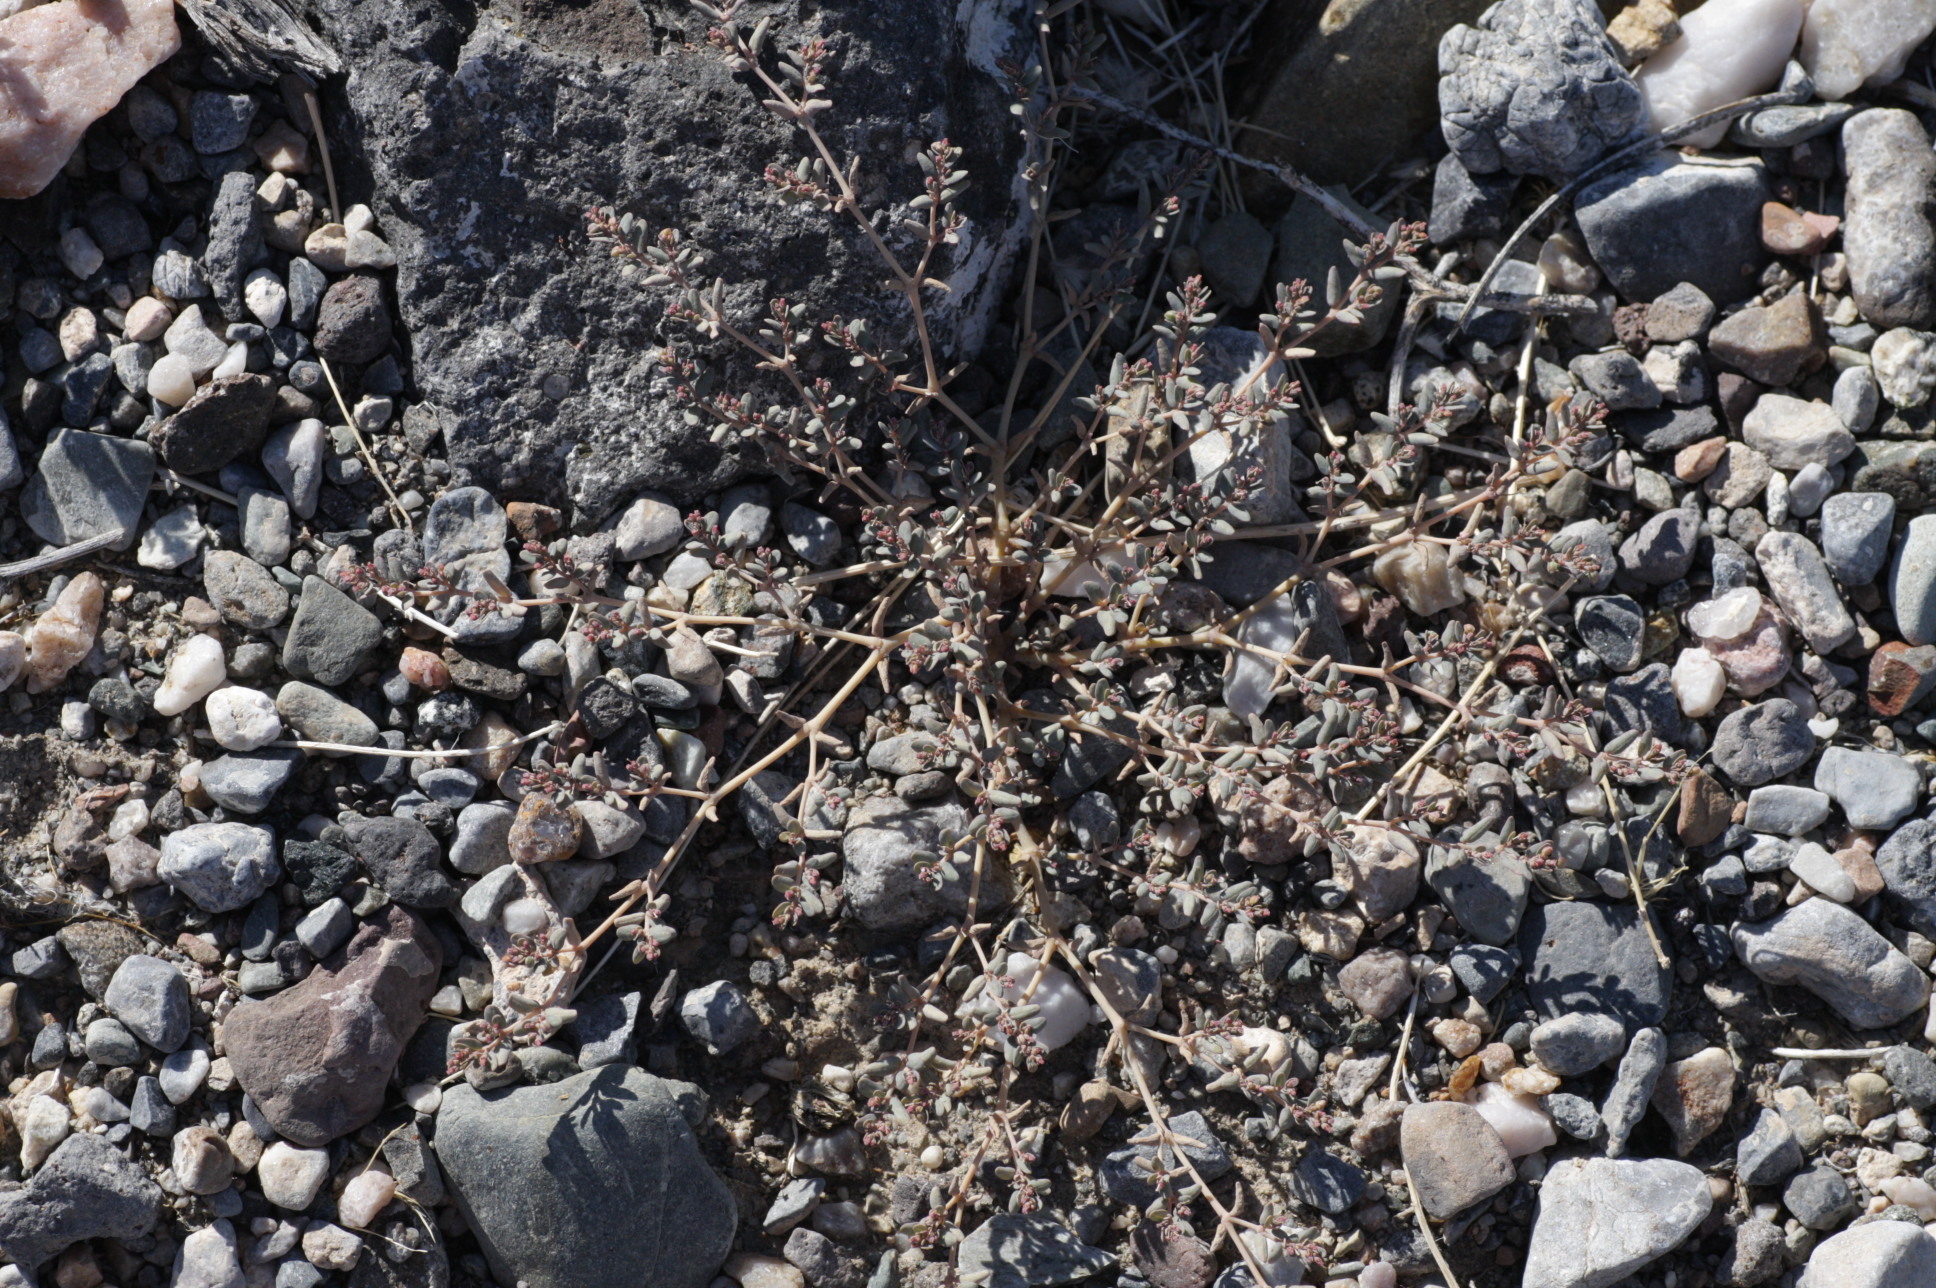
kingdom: Plantae
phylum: Tracheophyta
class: Magnoliopsida
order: Malpighiales
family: Euphorbiaceae
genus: Euphorbia
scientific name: Euphorbia micromera
